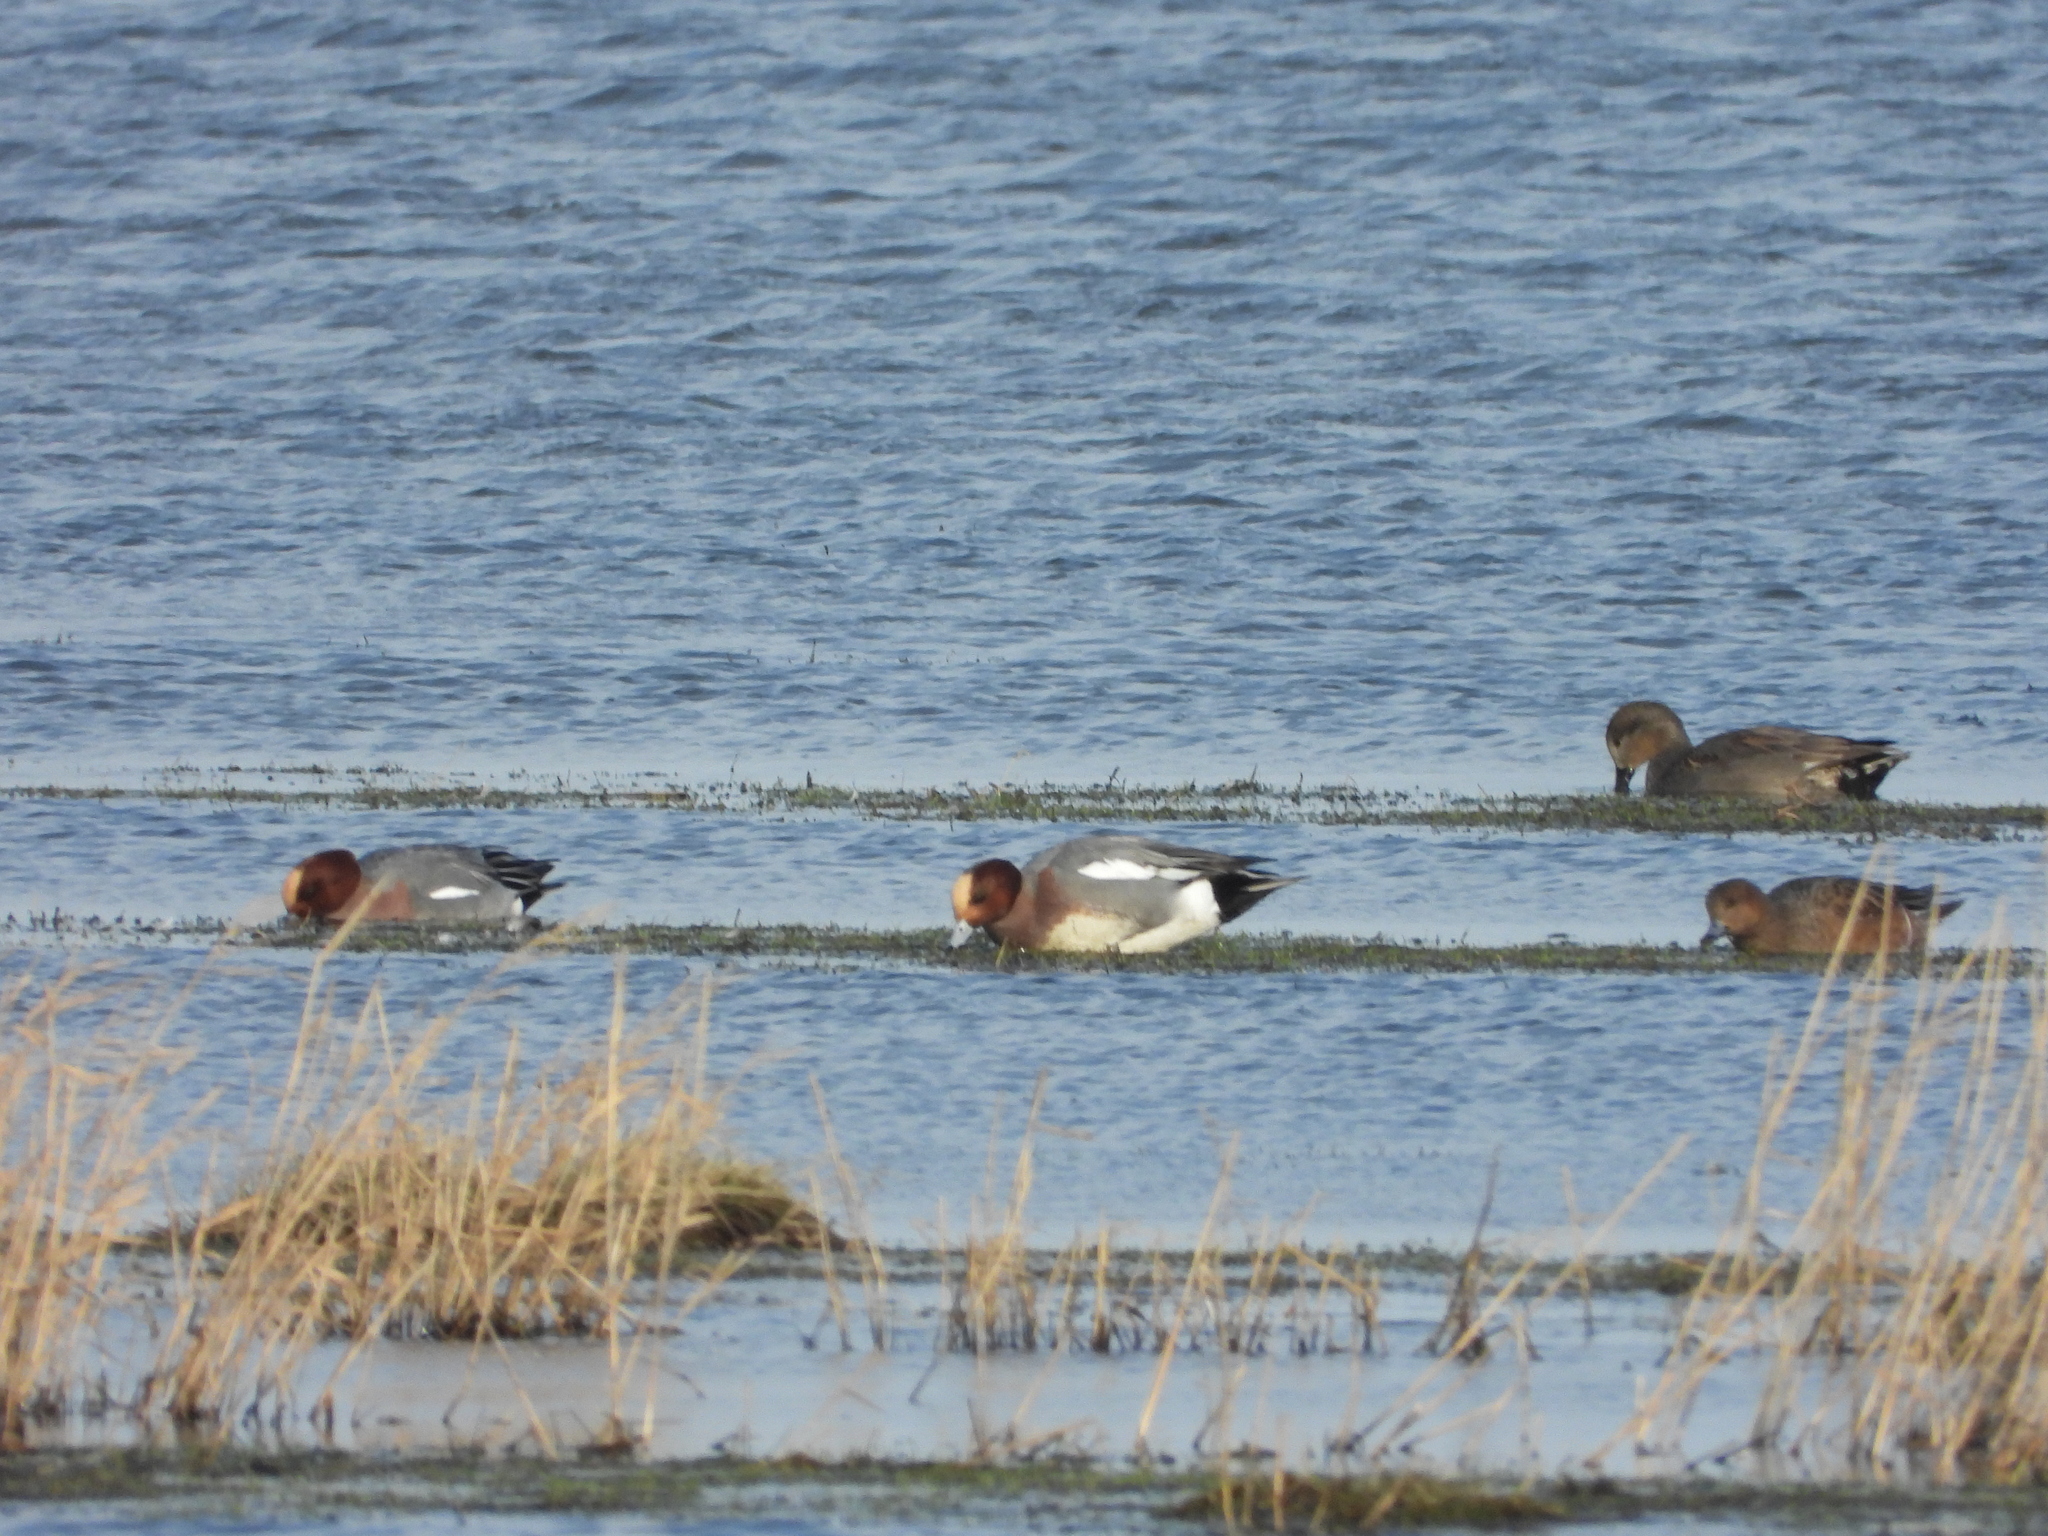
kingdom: Animalia
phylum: Chordata
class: Aves
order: Anseriformes
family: Anatidae
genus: Mareca
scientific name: Mareca penelope
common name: Eurasian wigeon
